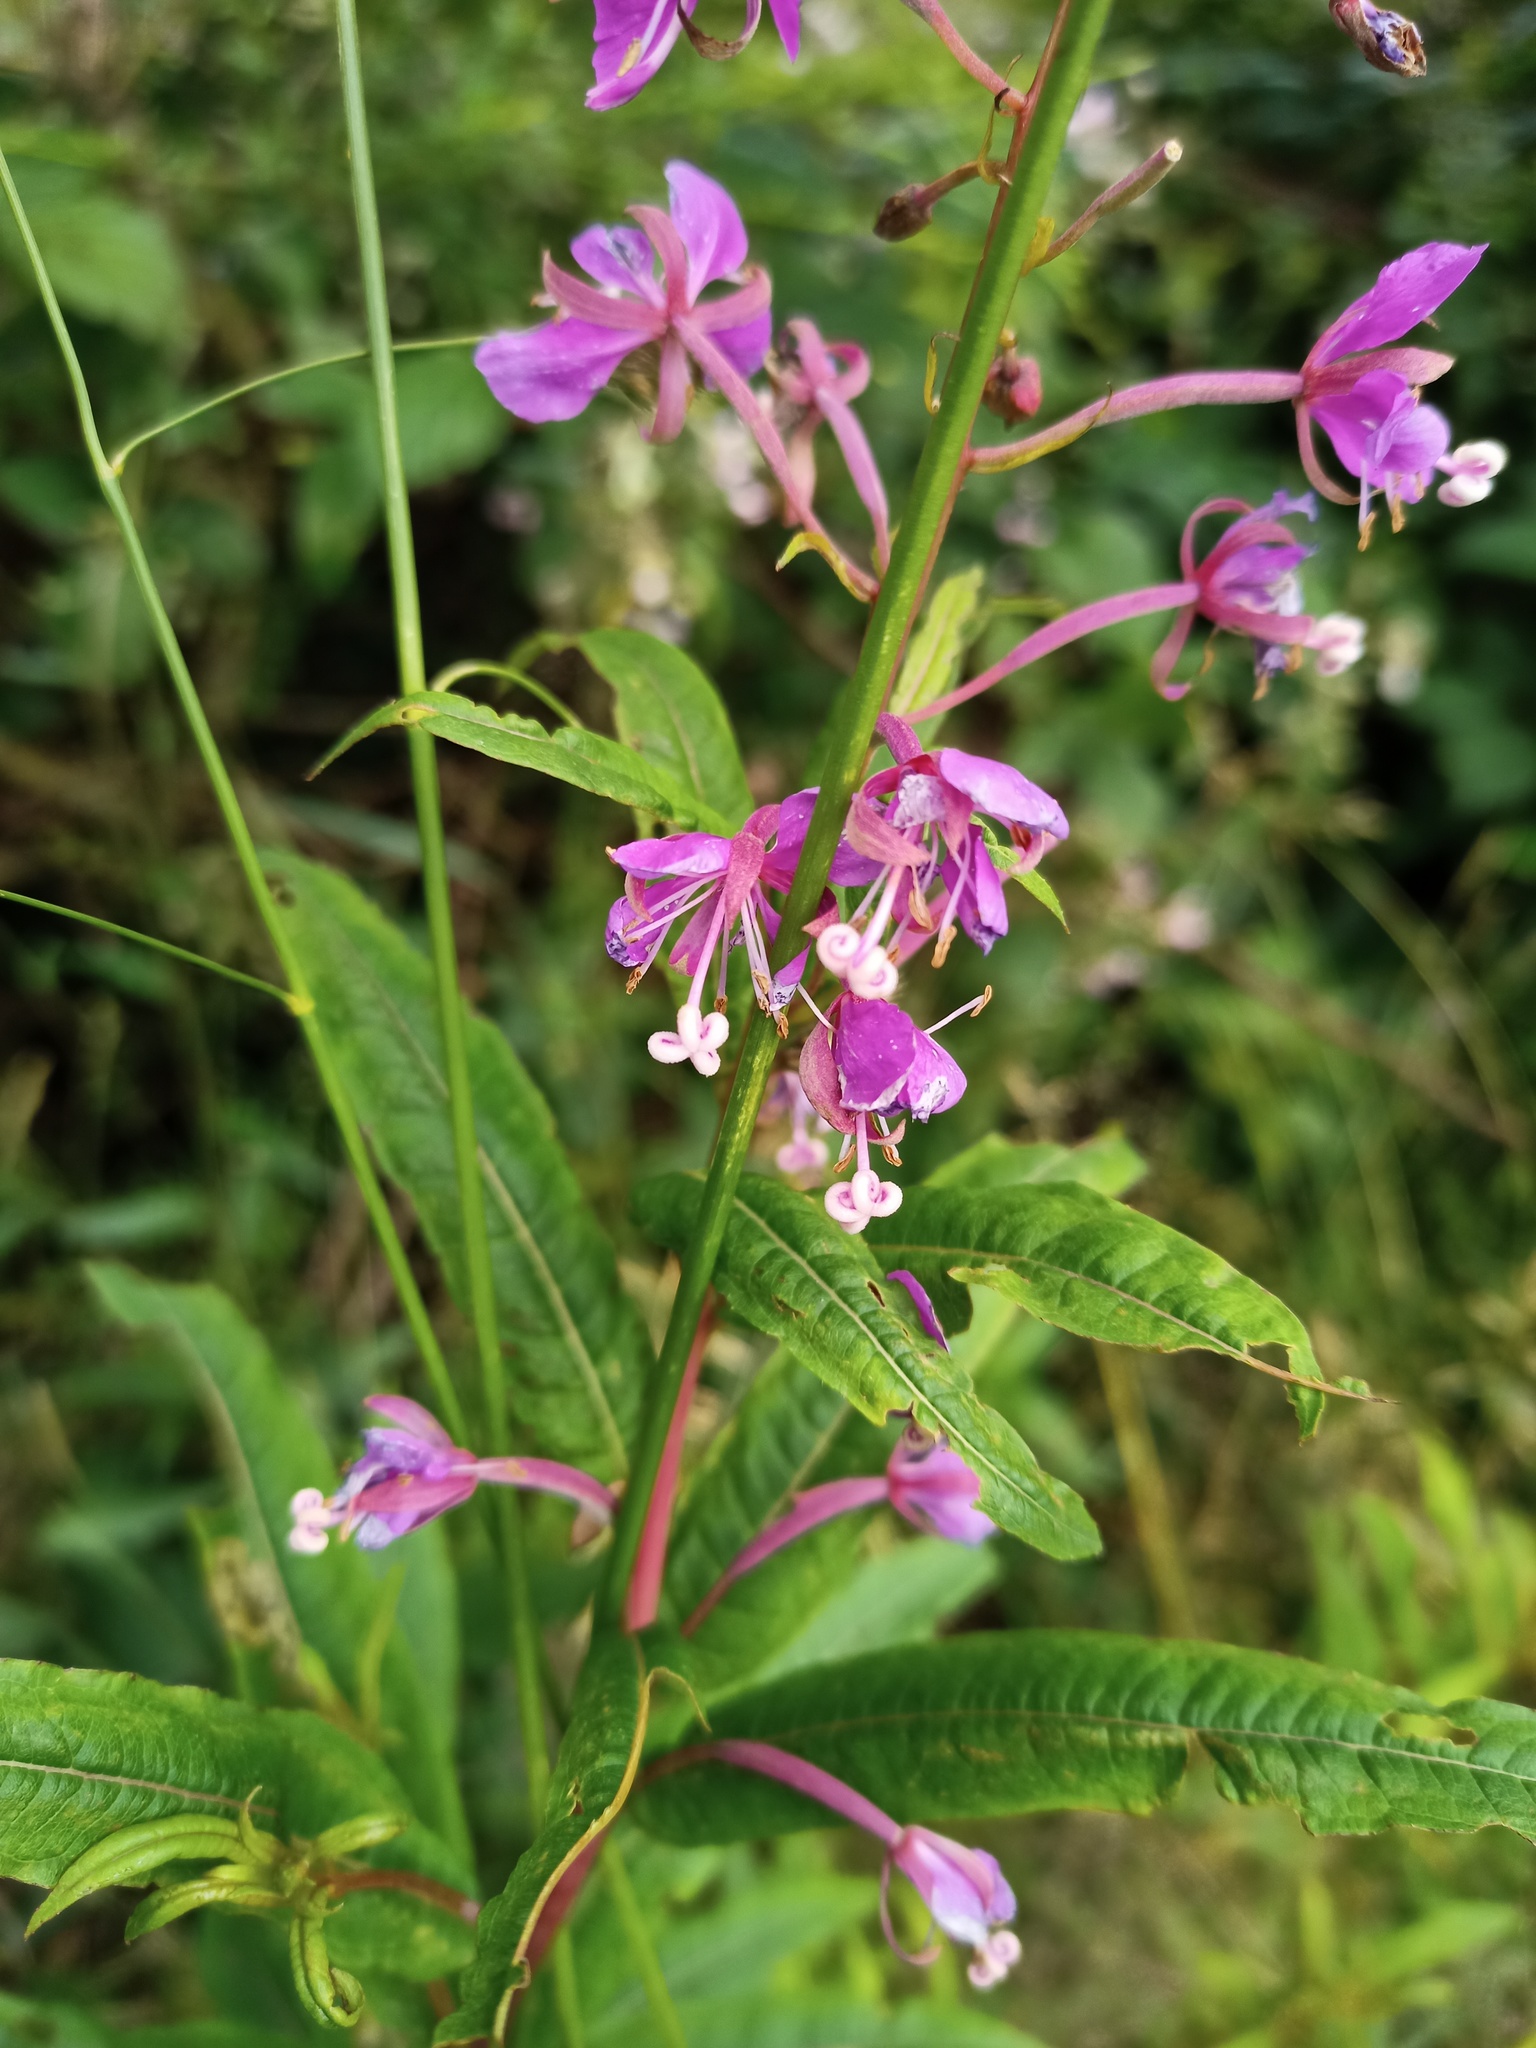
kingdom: Plantae
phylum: Tracheophyta
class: Magnoliopsida
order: Myrtales
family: Onagraceae
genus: Chamaenerion
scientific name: Chamaenerion angustifolium
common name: Fireweed
